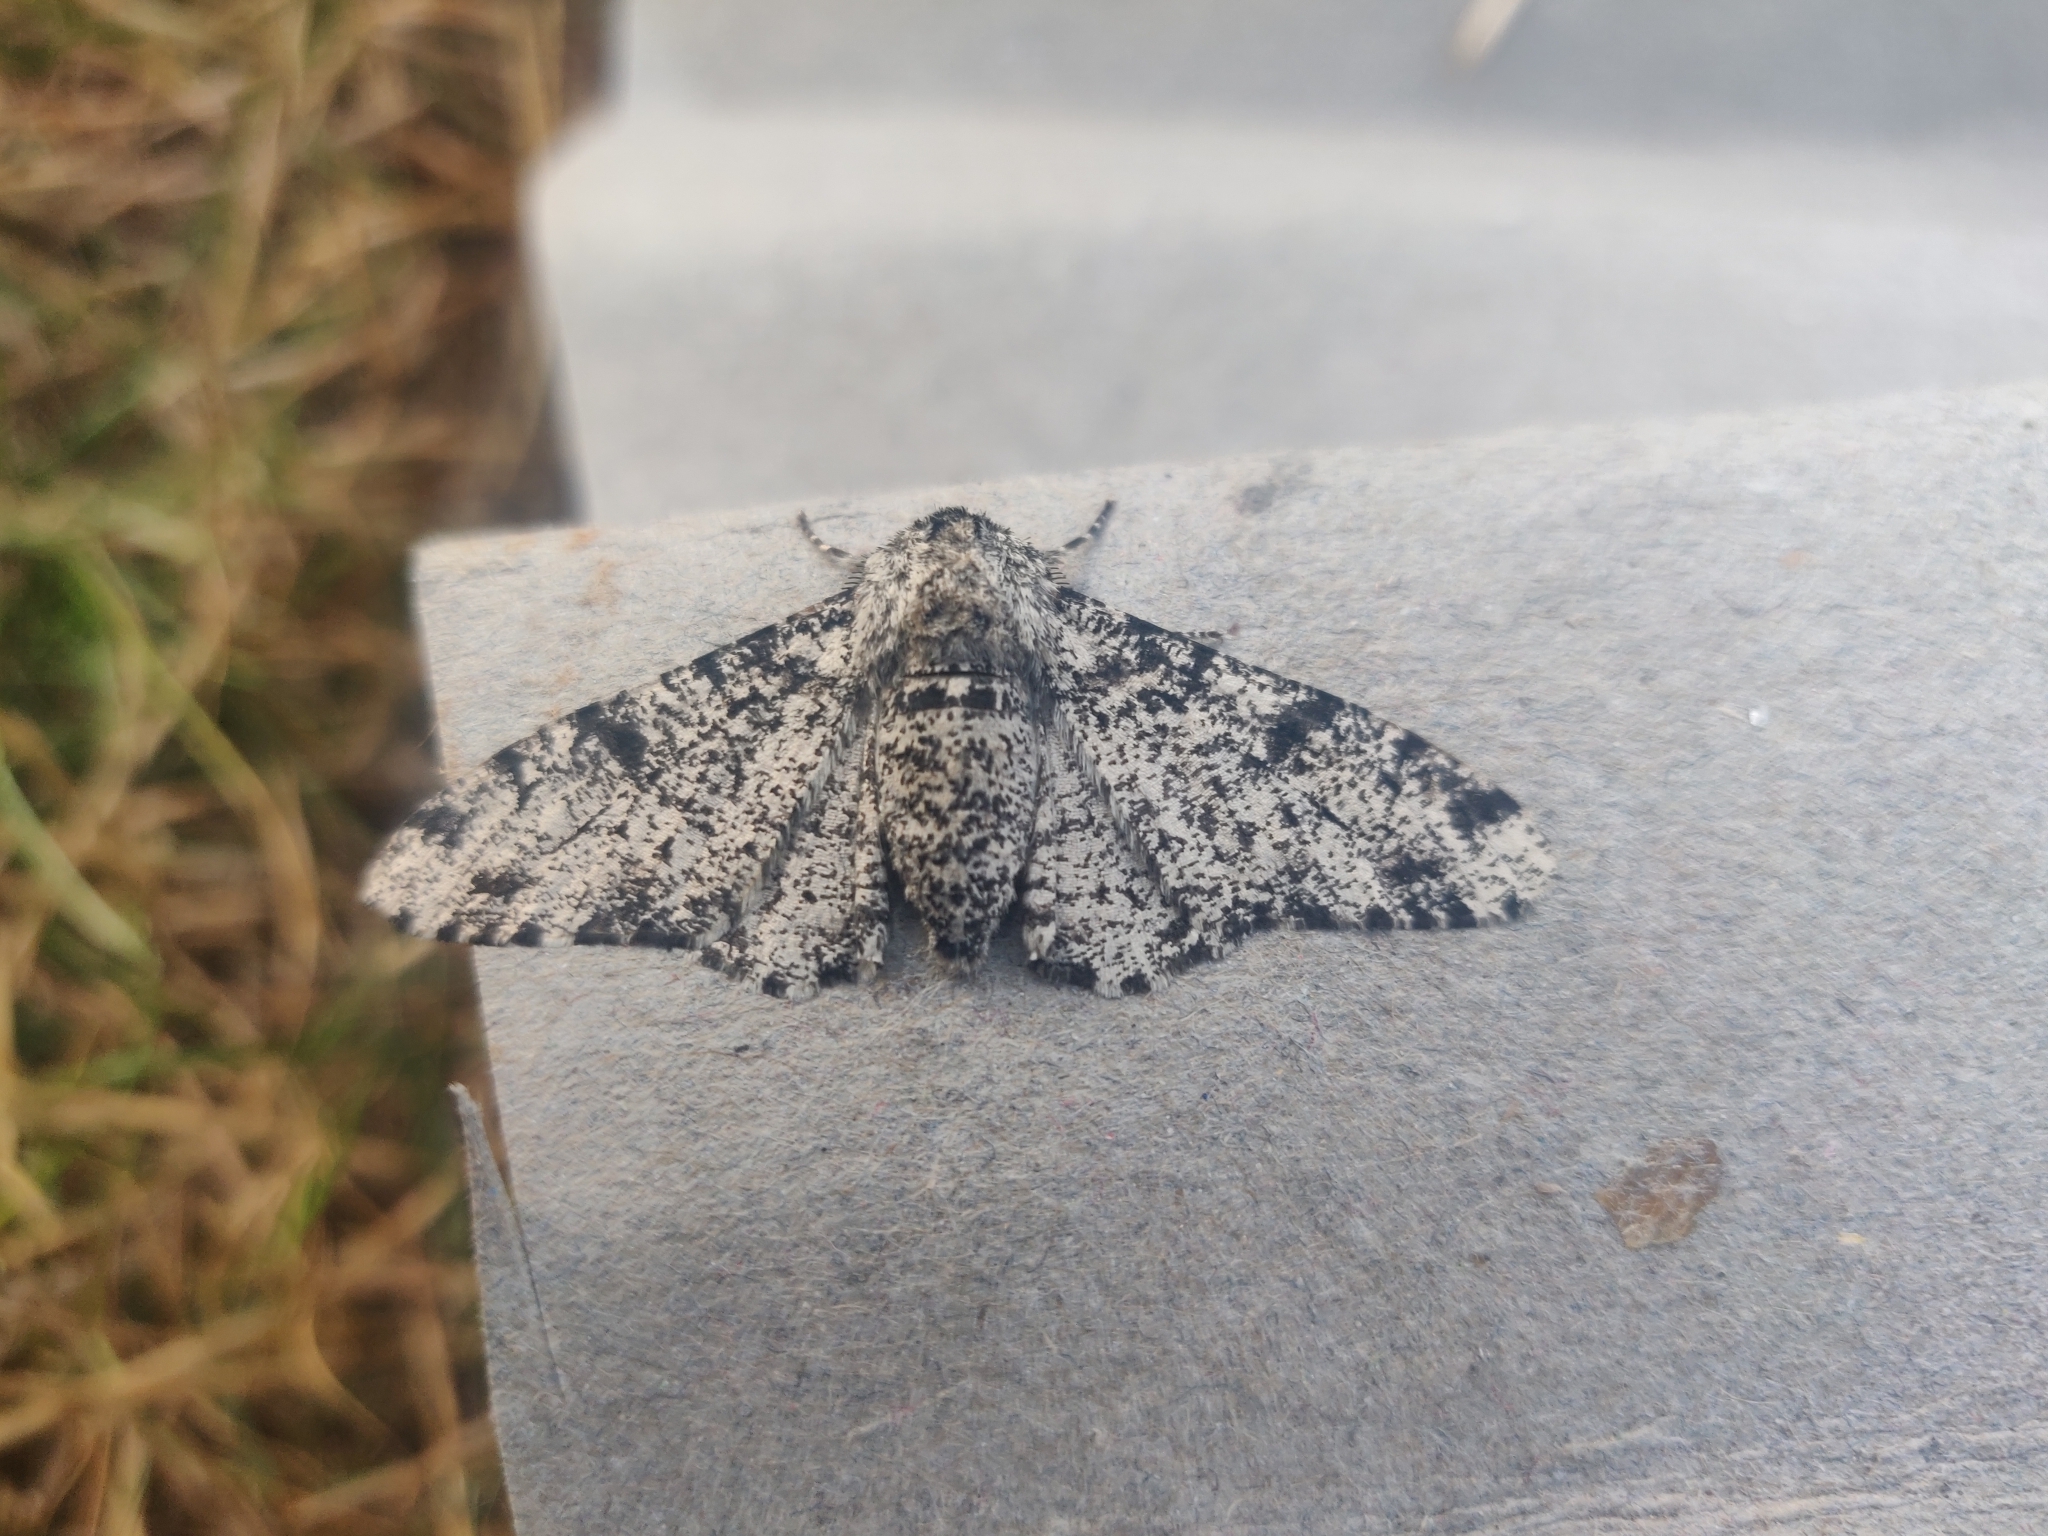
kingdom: Animalia
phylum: Arthropoda
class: Insecta
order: Lepidoptera
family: Geometridae
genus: Biston
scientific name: Biston betularia
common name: Peppered moth
